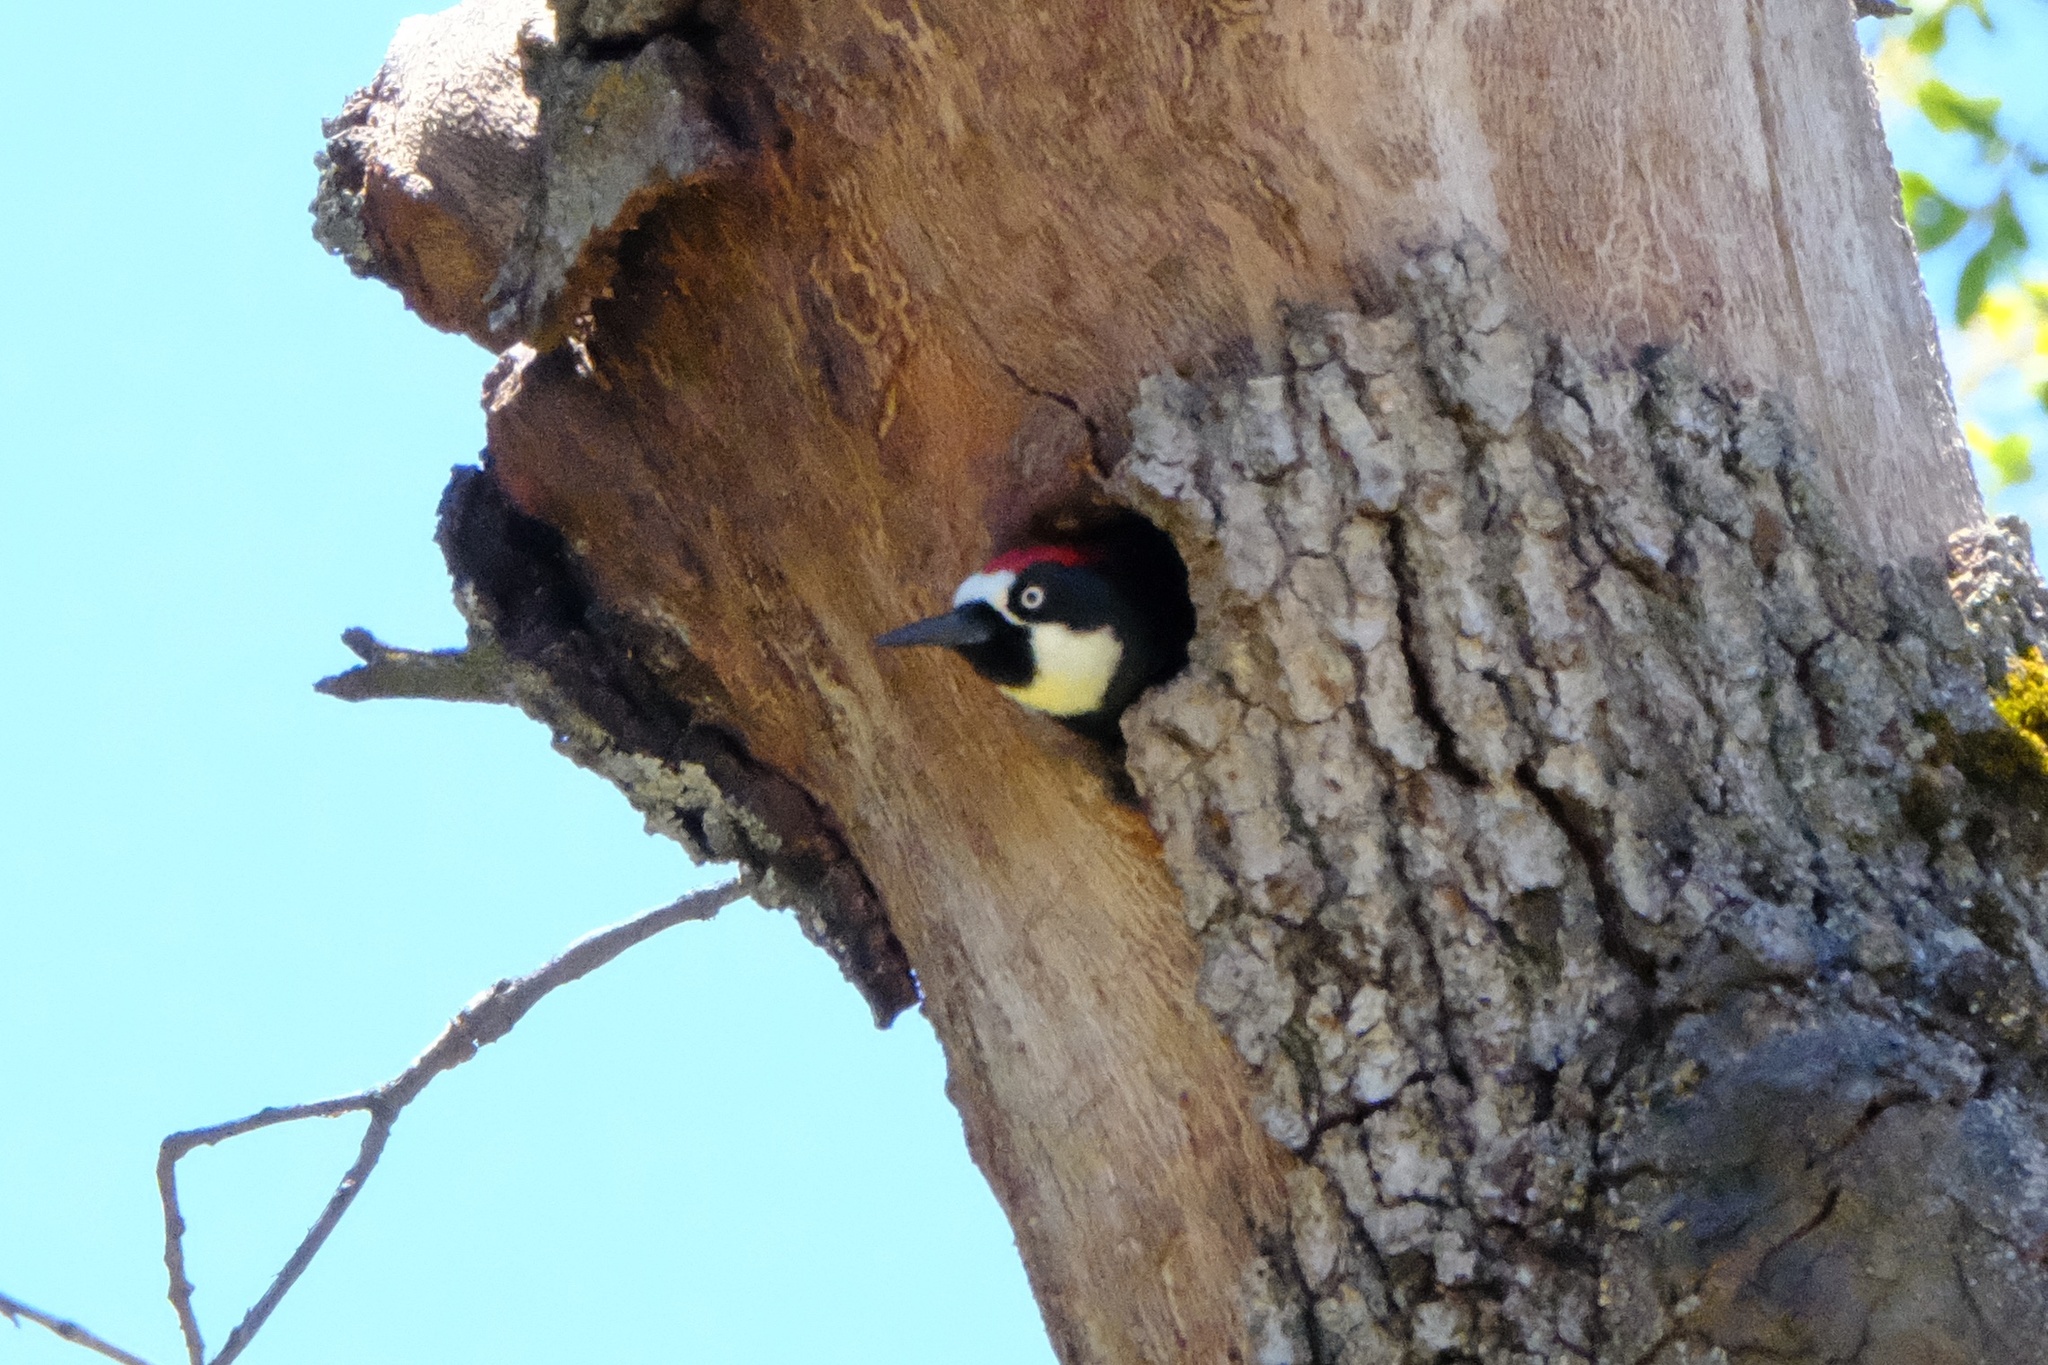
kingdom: Animalia
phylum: Chordata
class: Aves
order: Piciformes
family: Picidae
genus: Melanerpes
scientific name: Melanerpes formicivorus
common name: Acorn woodpecker
